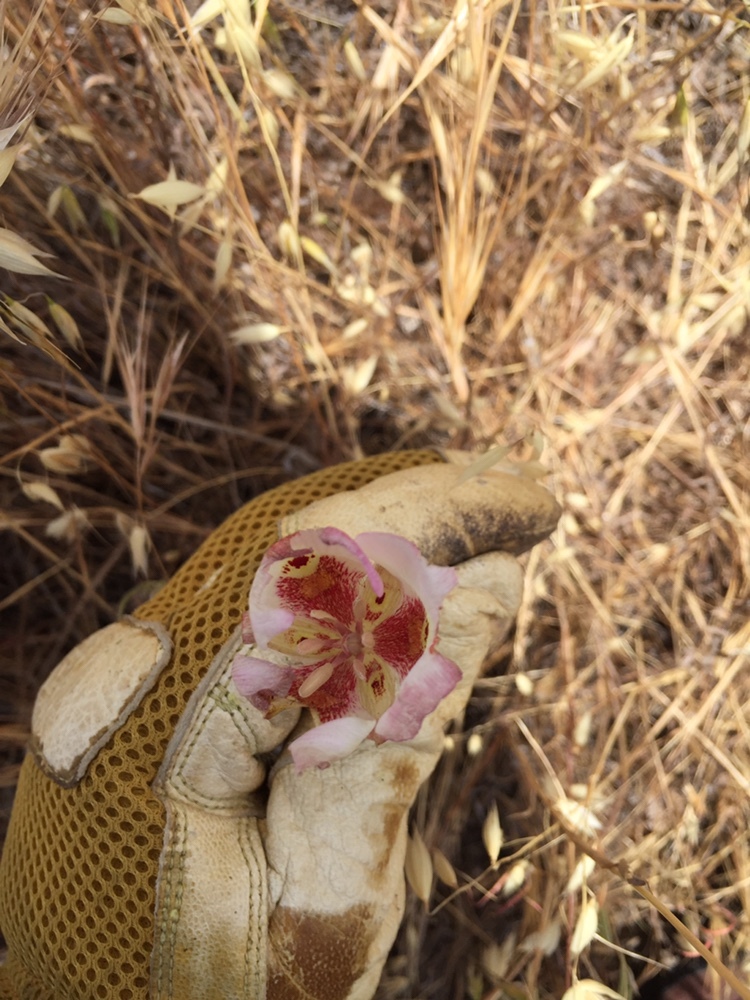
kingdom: Plantae
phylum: Tracheophyta
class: Liliopsida
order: Liliales
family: Liliaceae
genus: Calochortus
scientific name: Calochortus venustus
